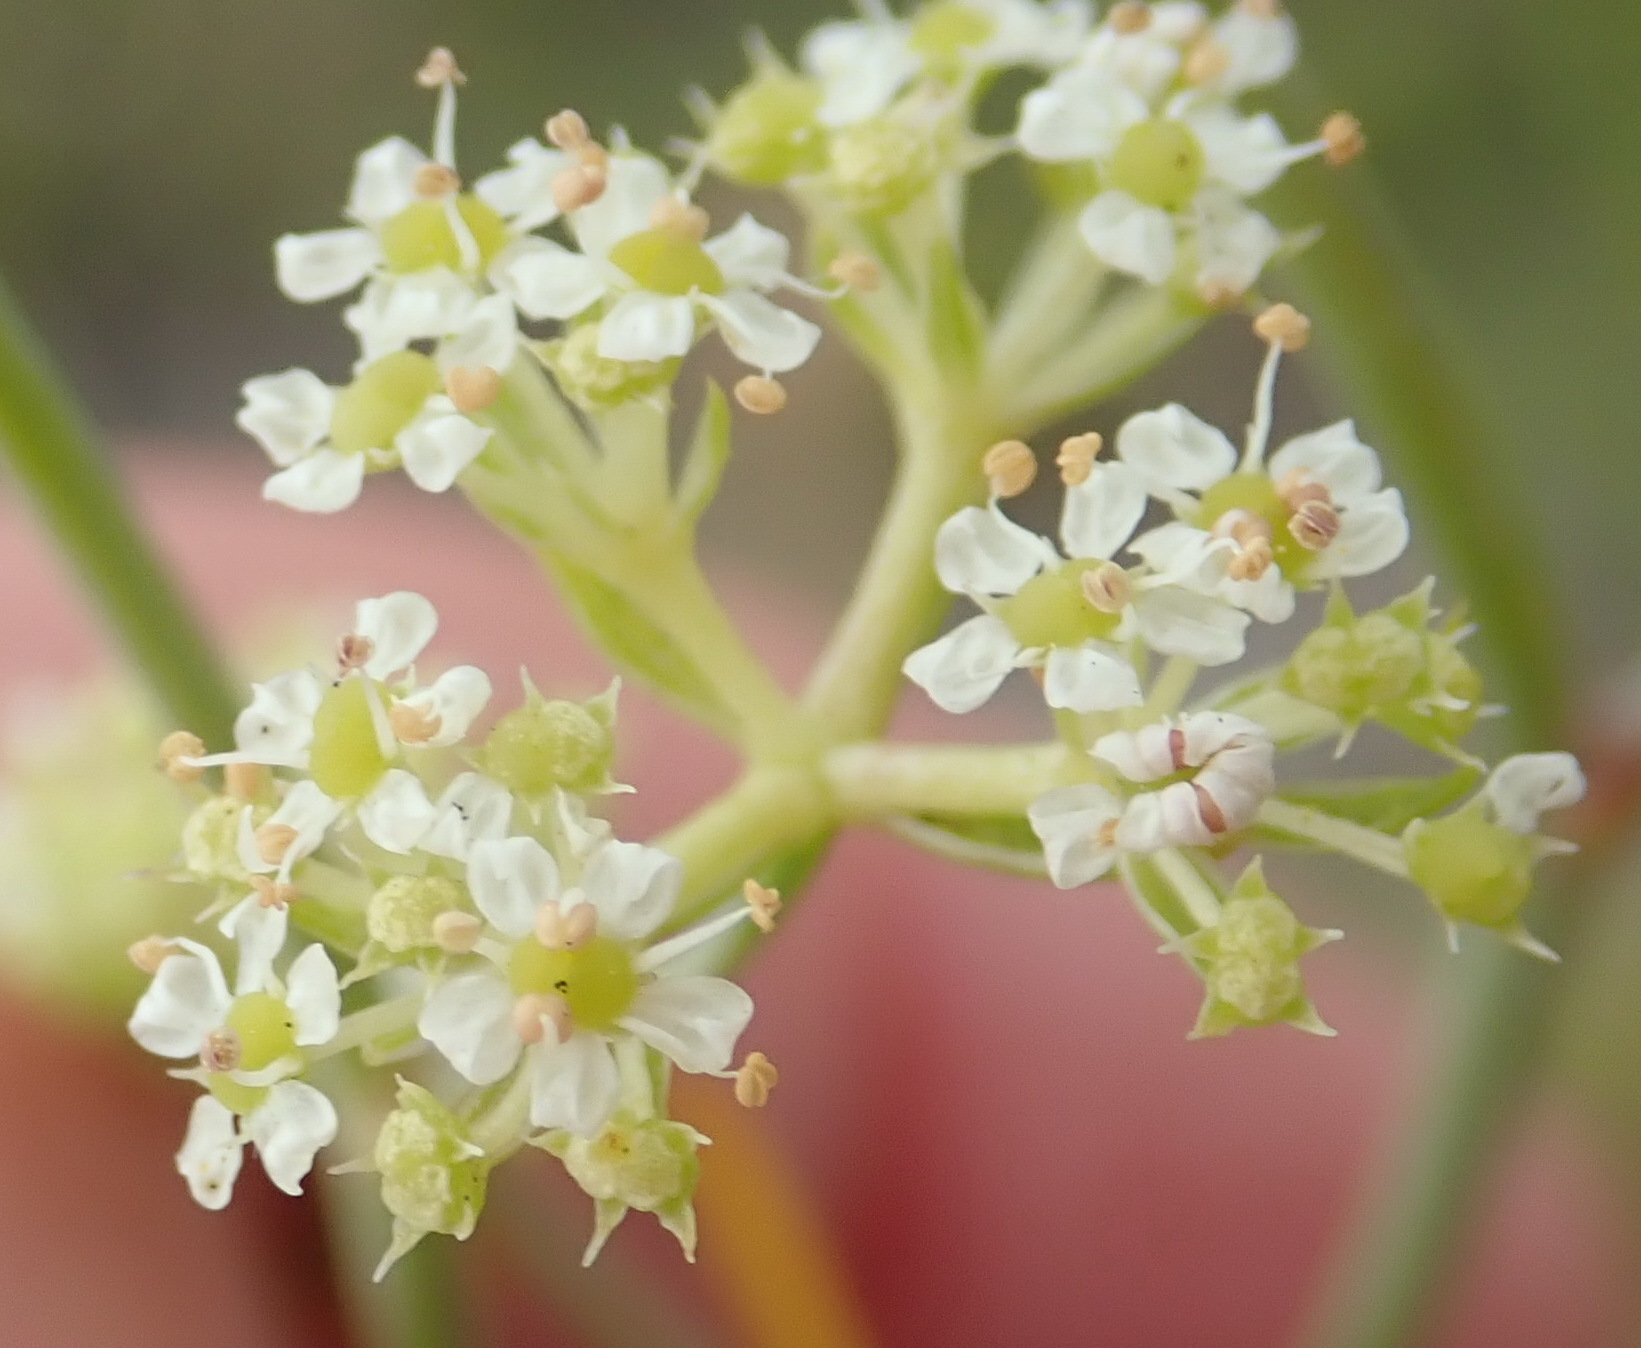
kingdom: Plantae
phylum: Tracheophyta
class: Magnoliopsida
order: Apiales
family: Apiaceae
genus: Itasina
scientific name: Itasina filifolia
